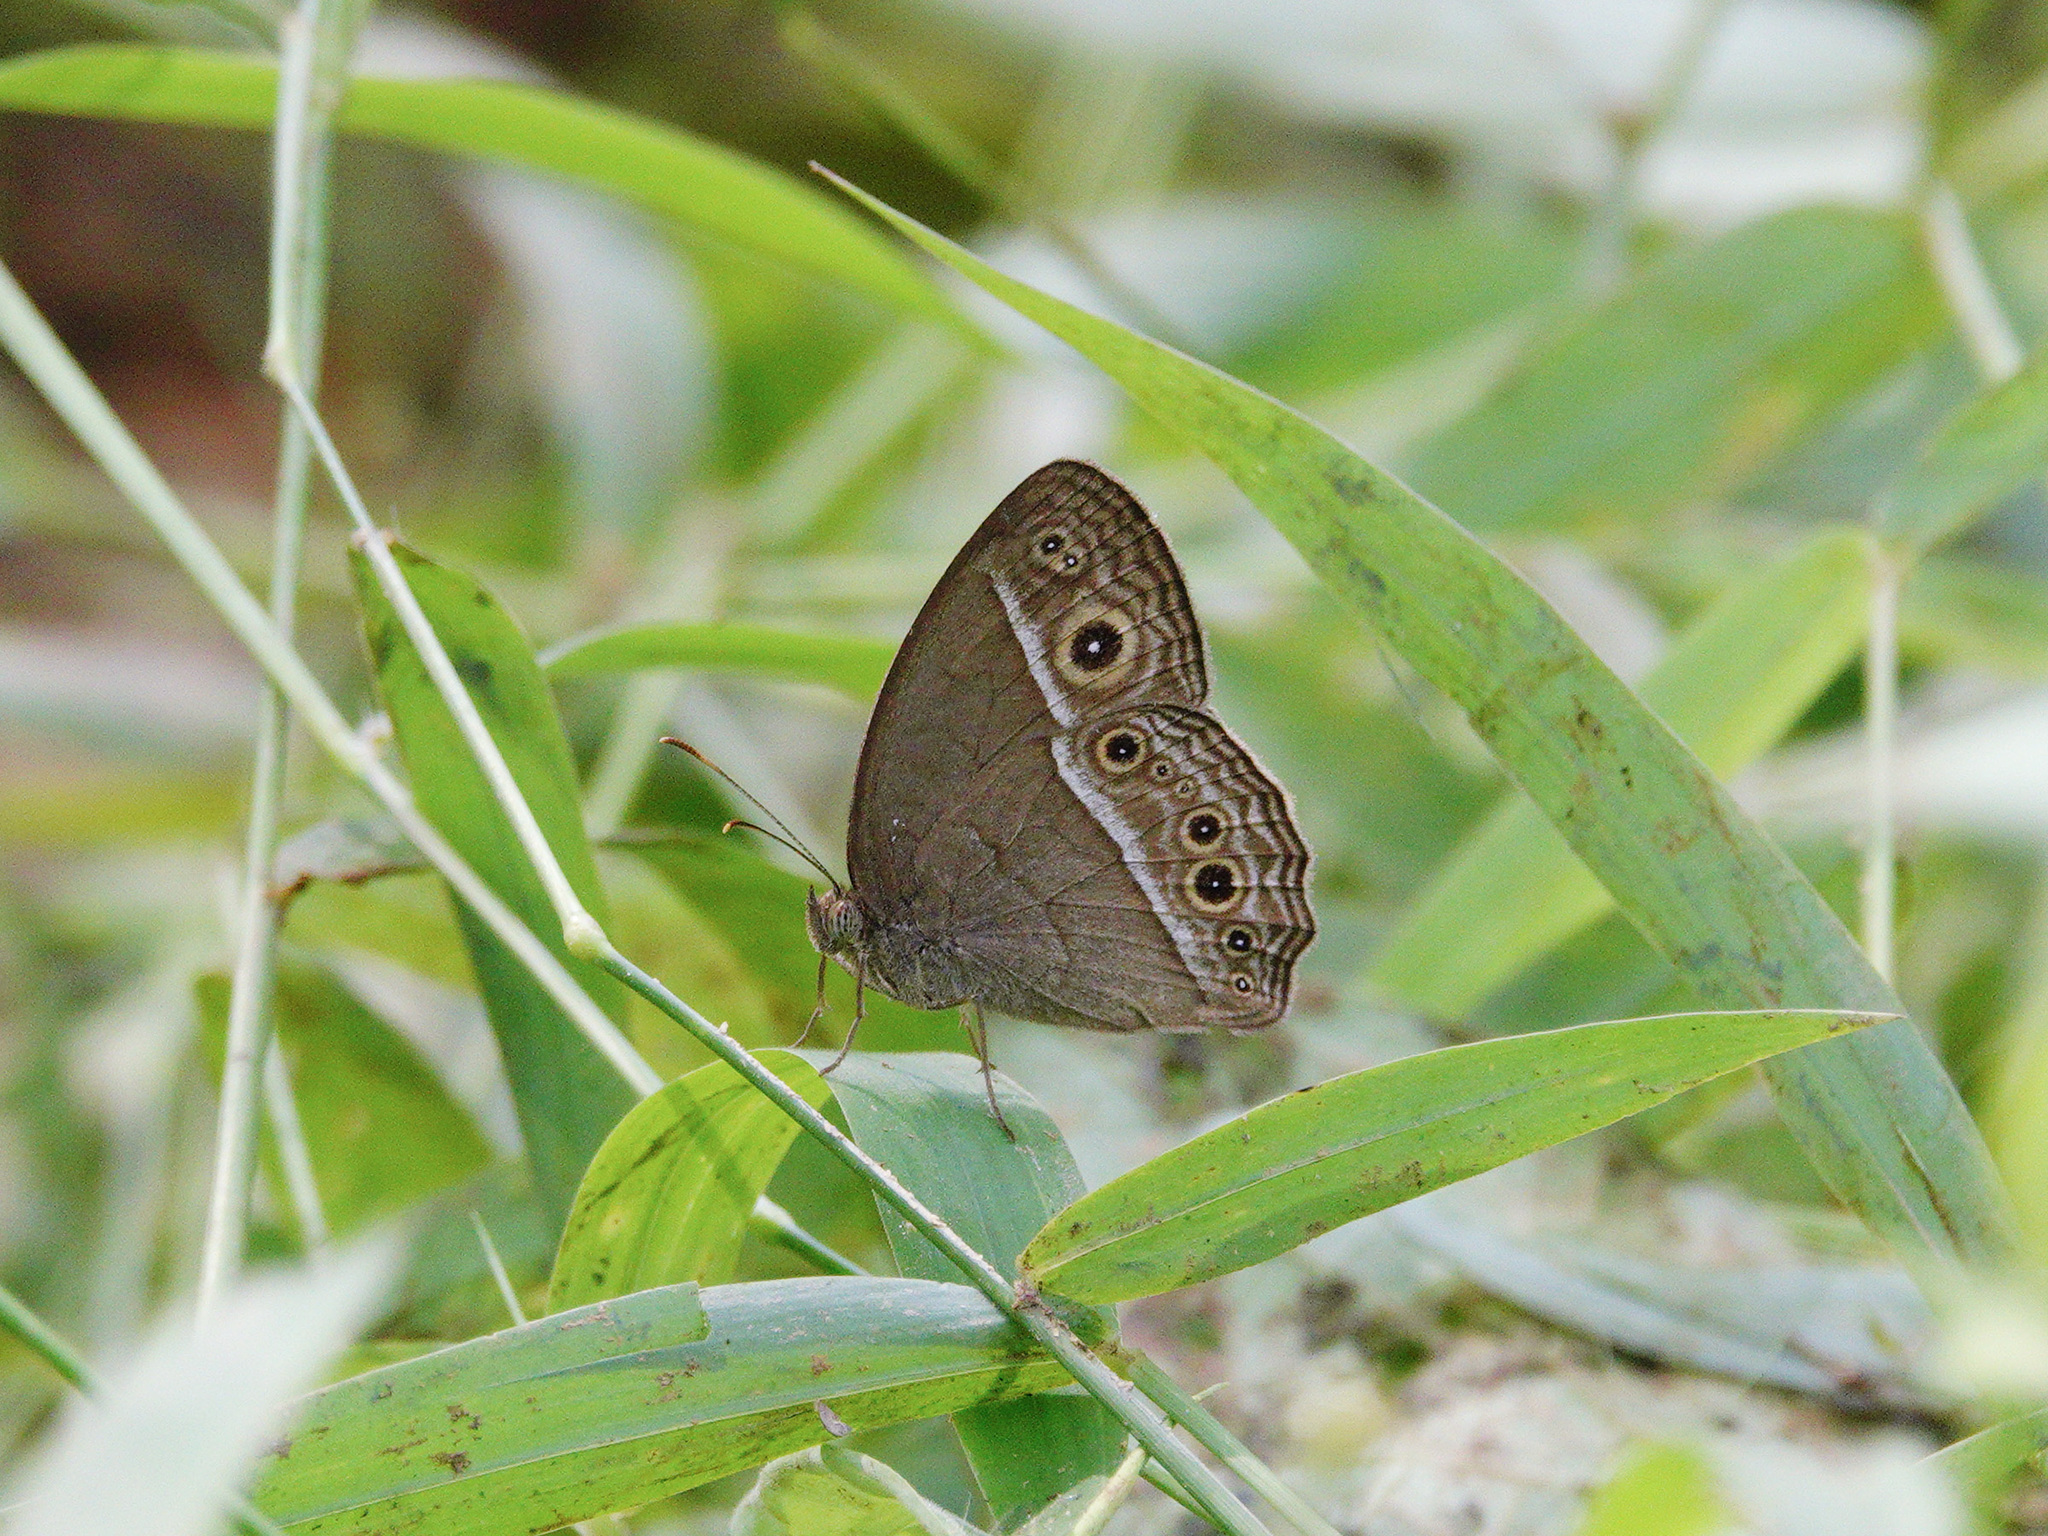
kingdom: Animalia
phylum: Arthropoda
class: Insecta
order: Lepidoptera
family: Nymphalidae
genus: Mycalesis
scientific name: Mycalesis perseoides
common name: Burmese bushbrown
